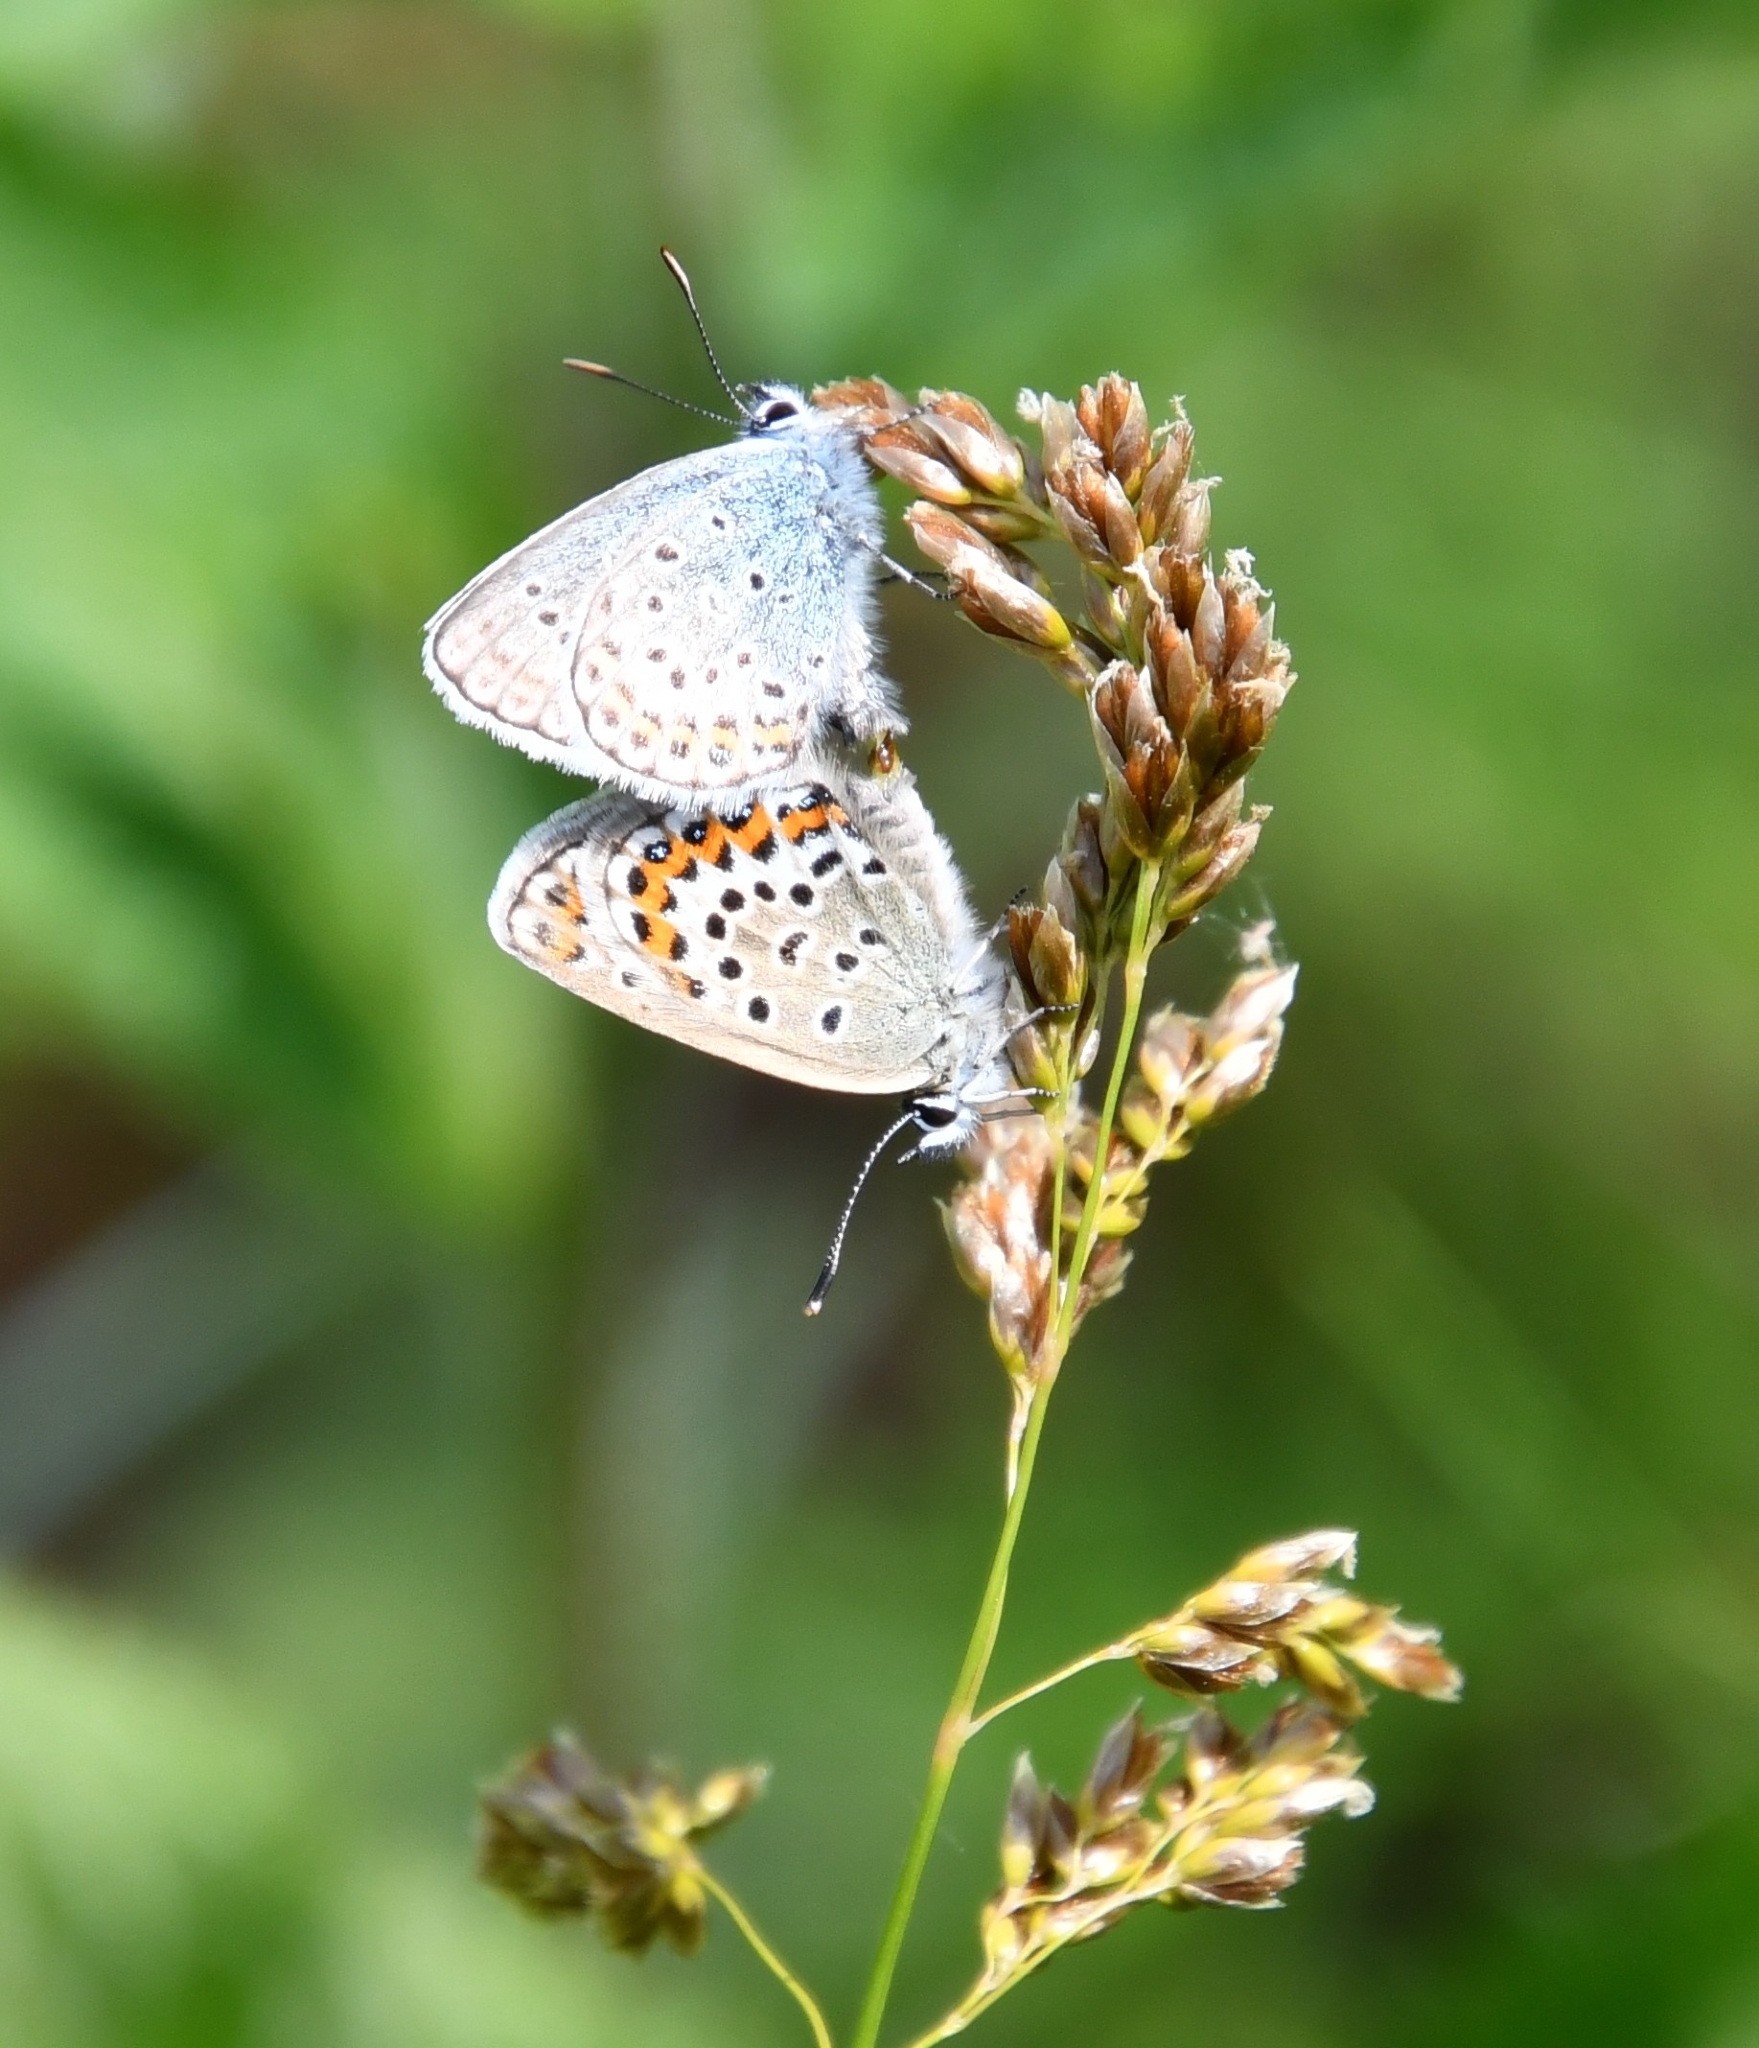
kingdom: Animalia
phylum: Arthropoda
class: Insecta
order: Lepidoptera
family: Lycaenidae
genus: Plebejus
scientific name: Plebejus argus
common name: Silver-studded blue
